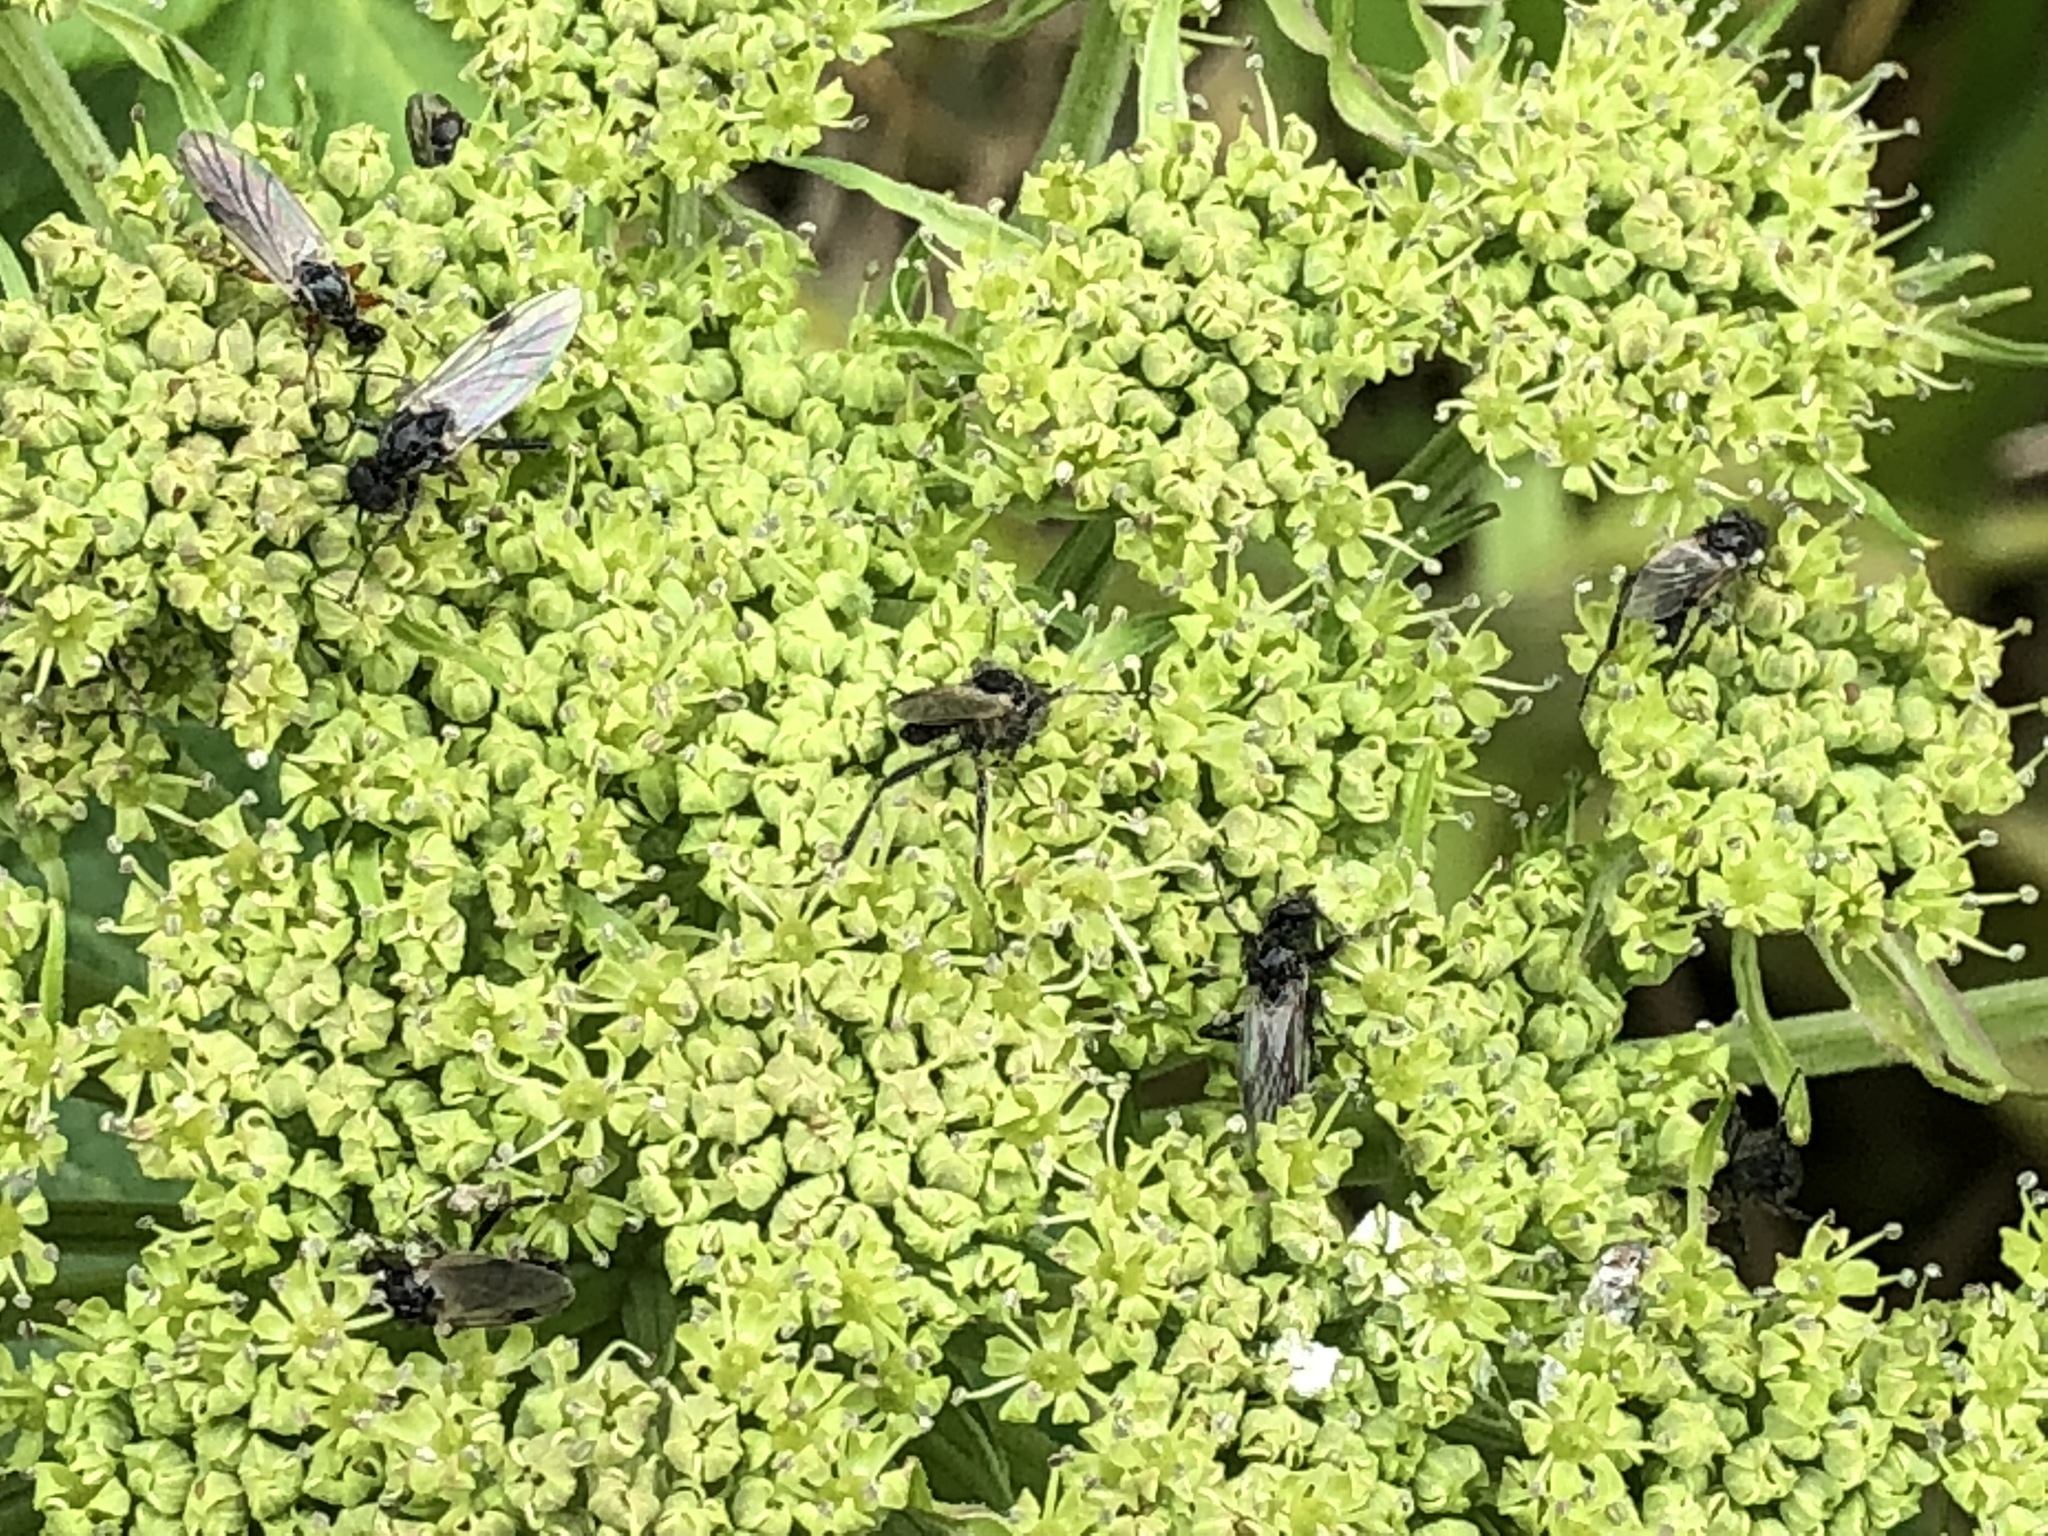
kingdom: Animalia
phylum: Arthropoda
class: Insecta
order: Diptera
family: Bibionidae
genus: Bibio
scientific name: Bibio
